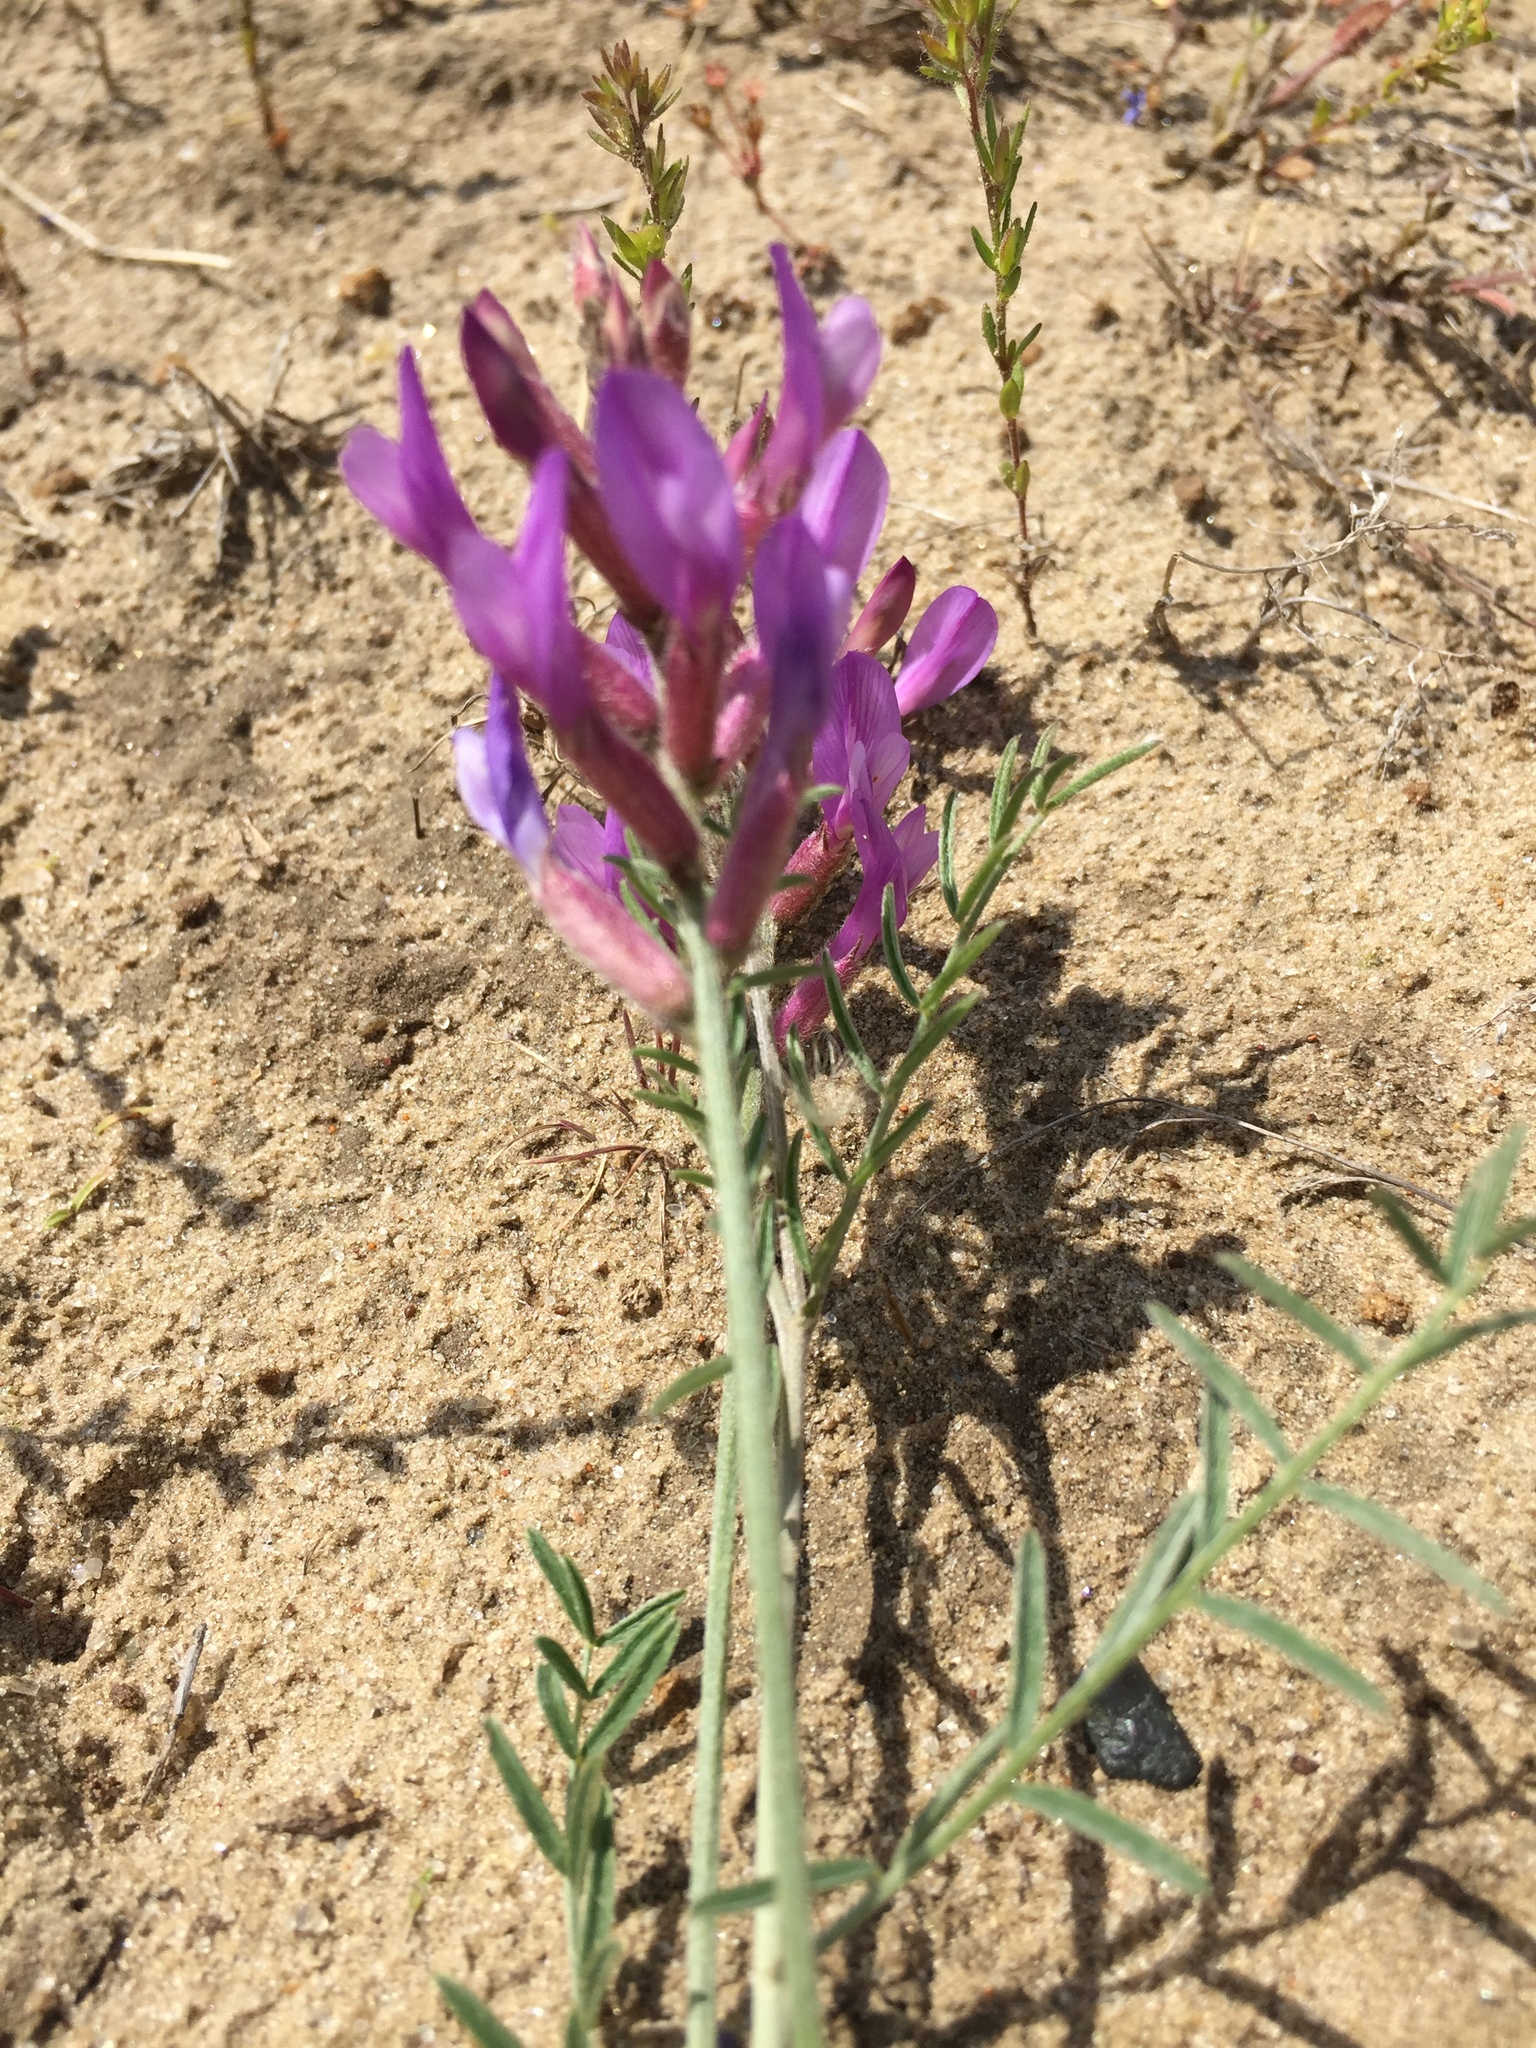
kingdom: Plantae
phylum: Tracheophyta
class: Magnoliopsida
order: Fabales
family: Fabaceae
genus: Astragalus
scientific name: Astragalus varius
